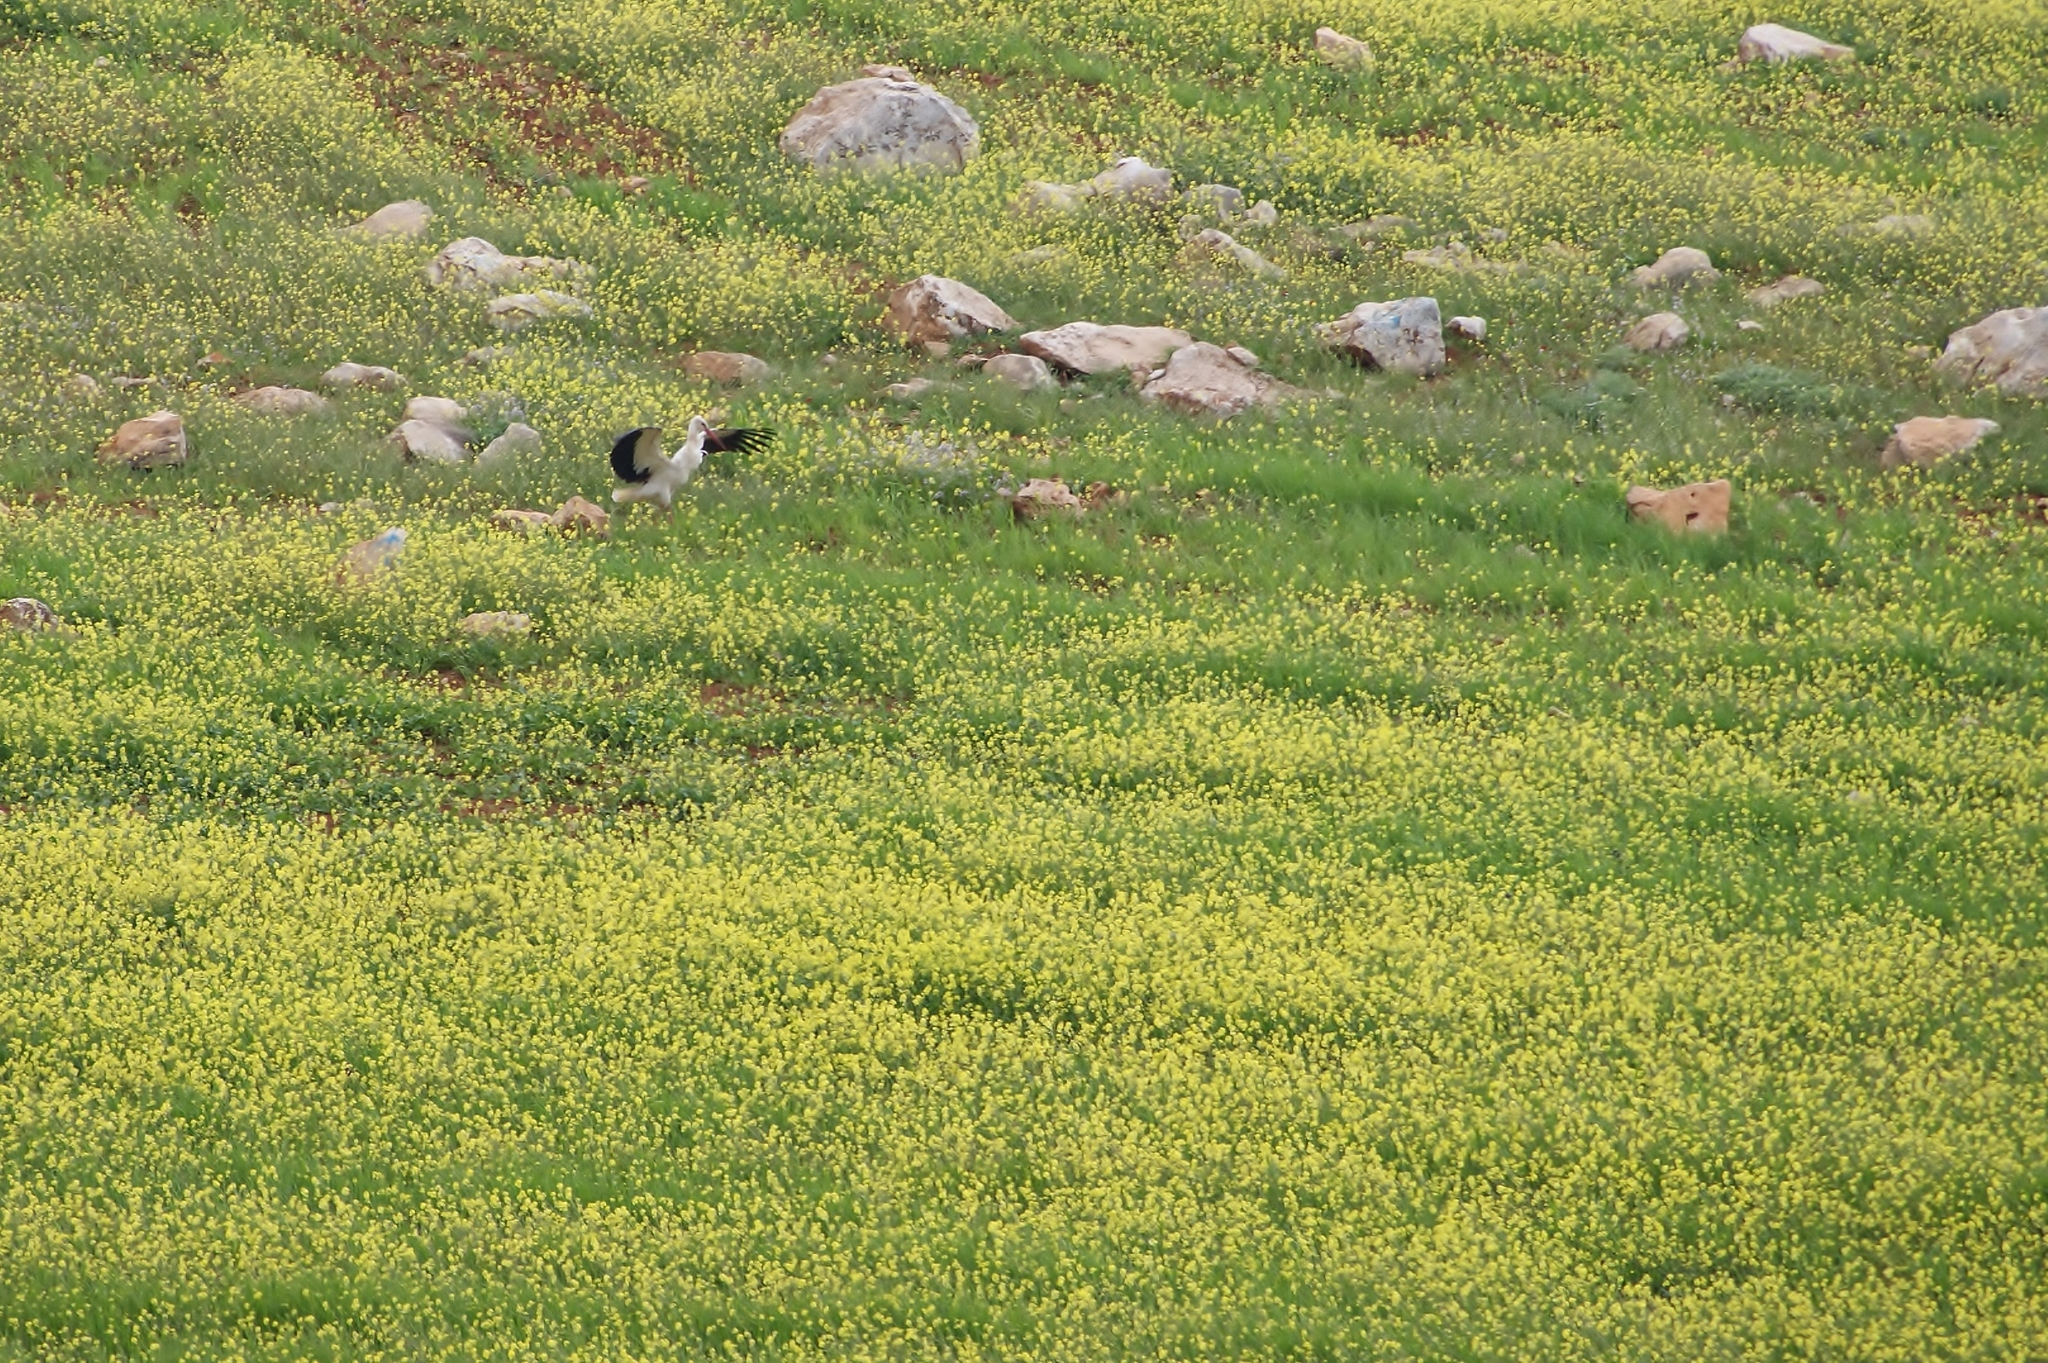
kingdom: Animalia
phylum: Chordata
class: Aves
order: Ciconiiformes
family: Ciconiidae
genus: Ciconia
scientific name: Ciconia ciconia
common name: White stork
